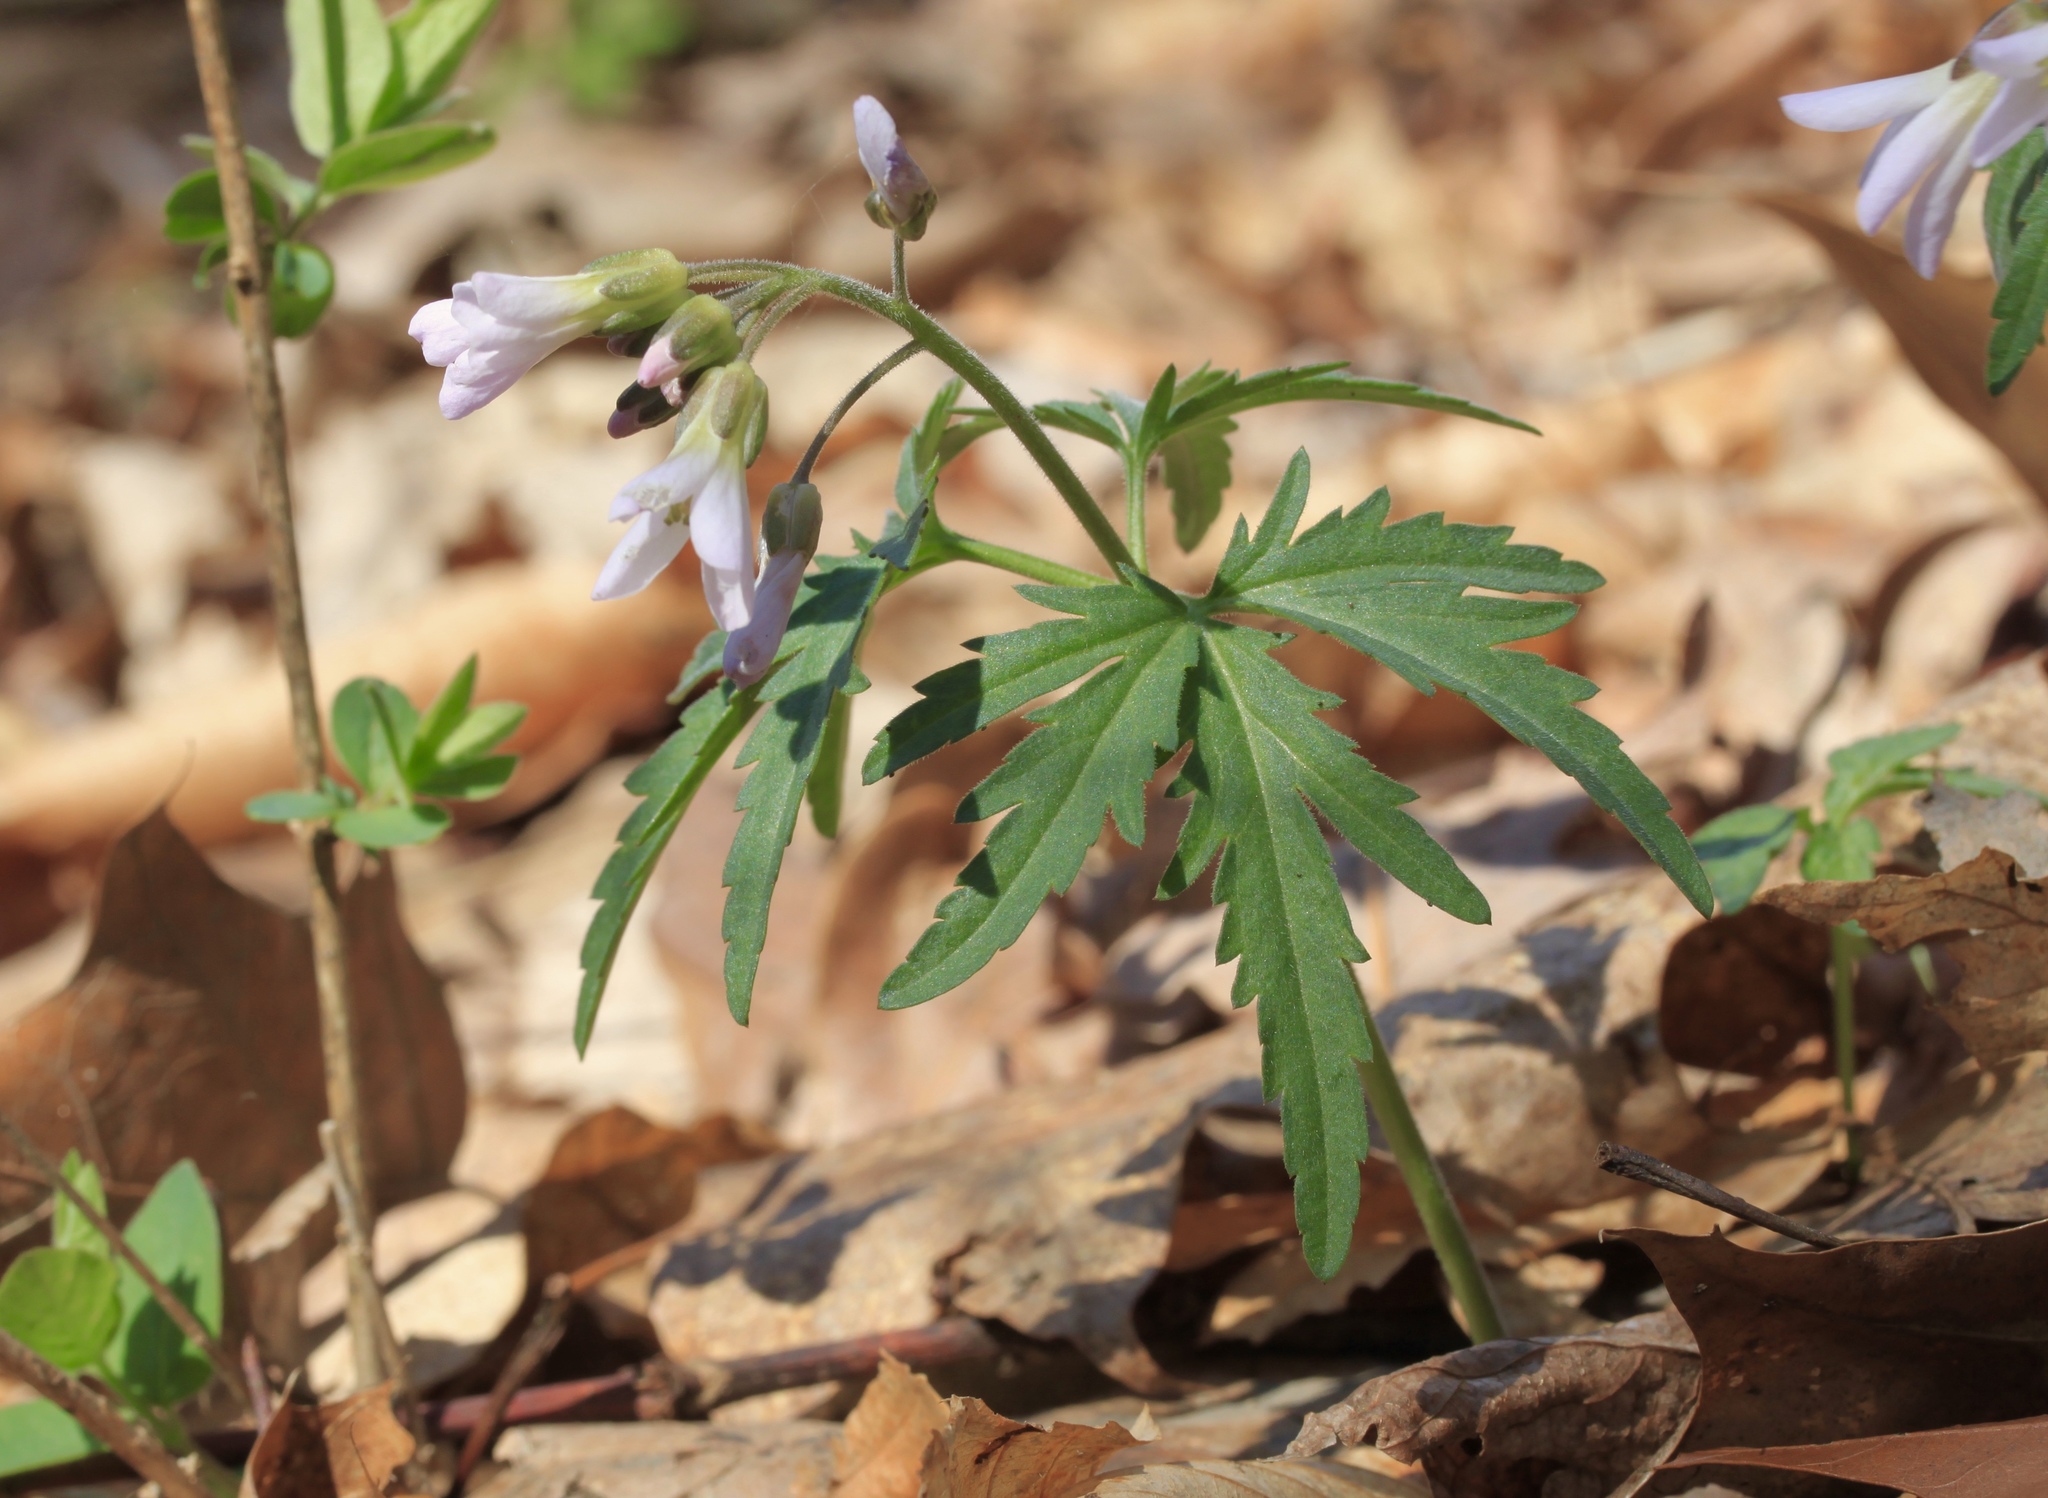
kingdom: Plantae
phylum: Tracheophyta
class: Magnoliopsida
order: Brassicales
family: Brassicaceae
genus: Cardamine
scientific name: Cardamine concatenata
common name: Cut-leaf toothcup
